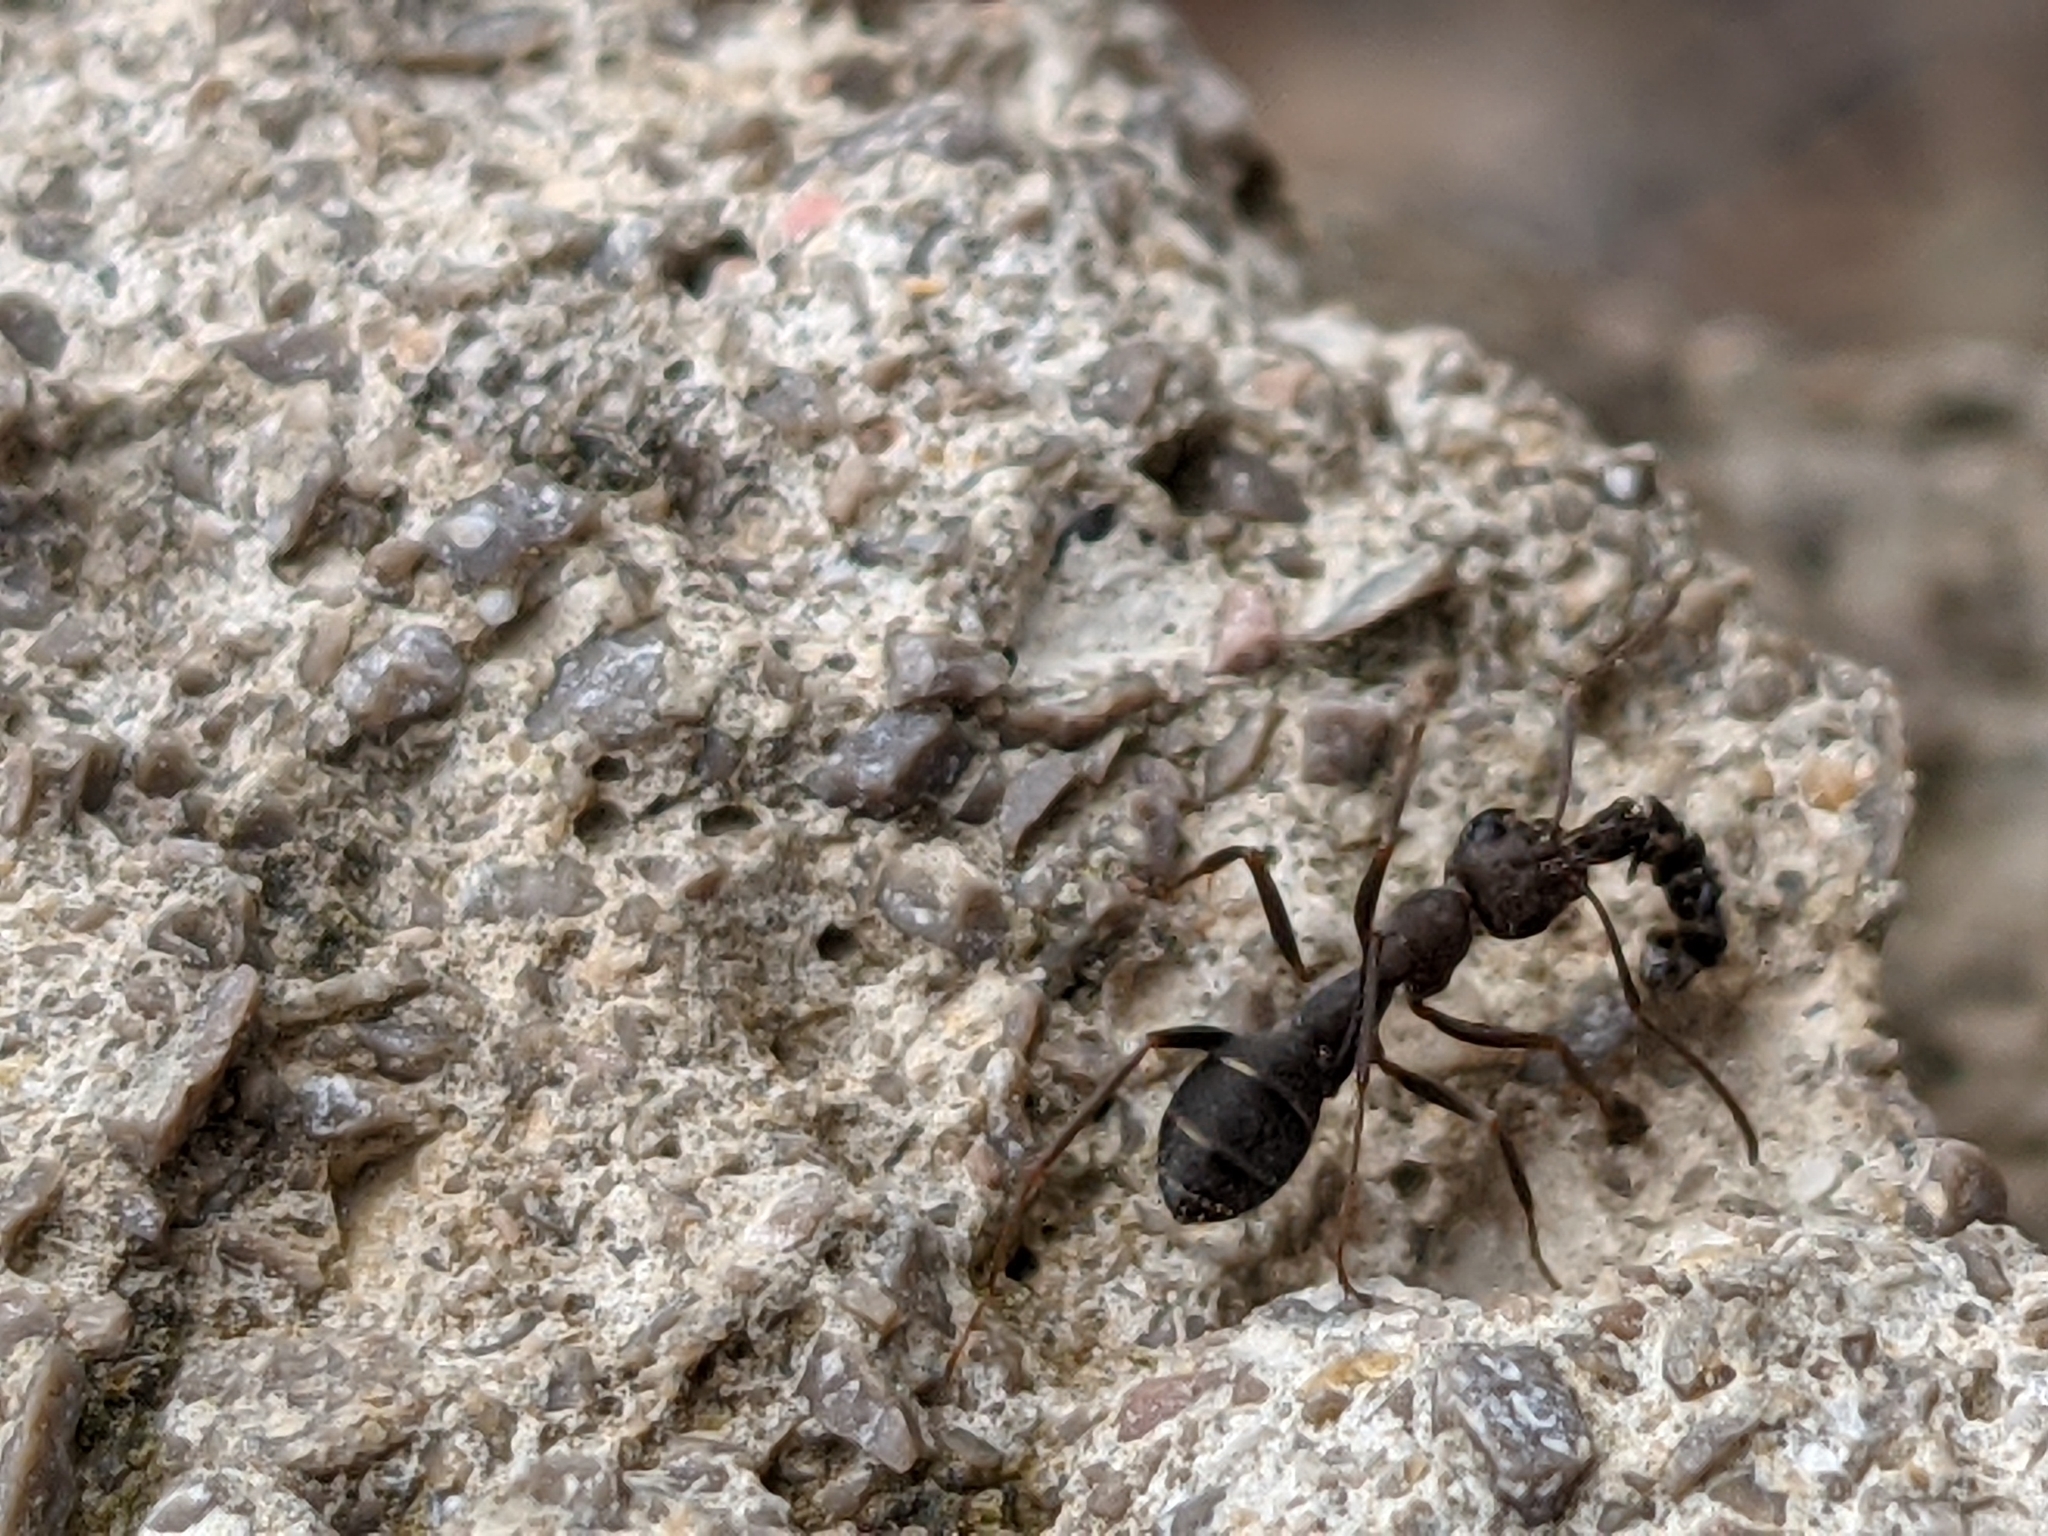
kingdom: Animalia
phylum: Arthropoda
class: Insecta
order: Hymenoptera
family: Formicidae
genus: Formica
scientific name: Formica subrufa
